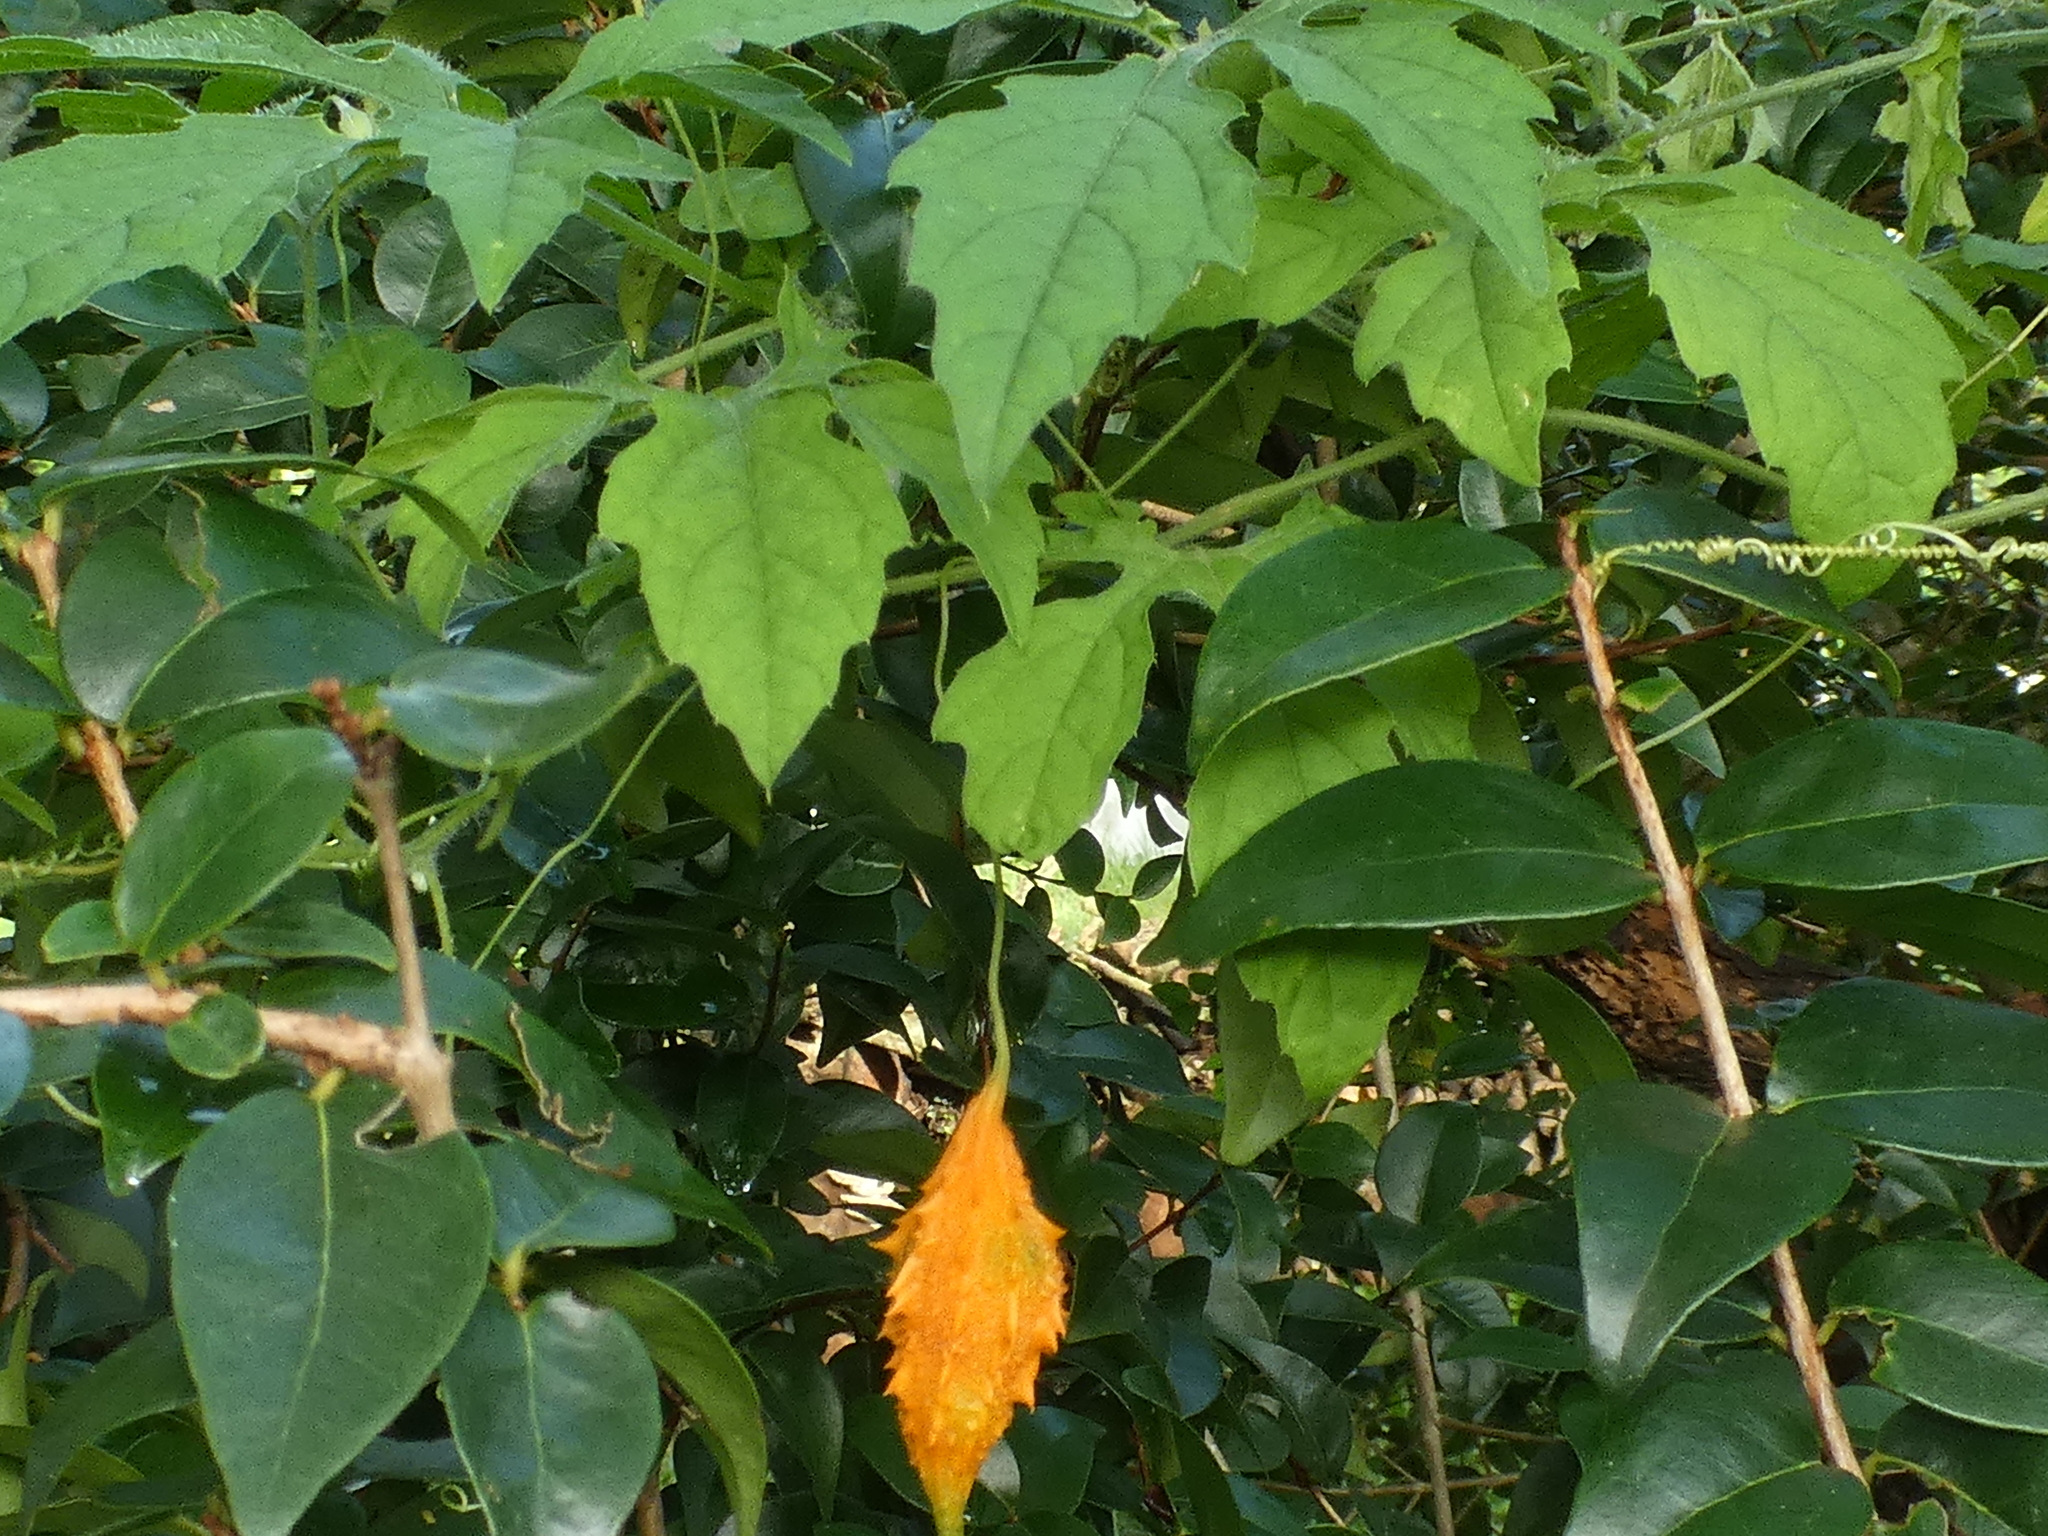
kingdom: Plantae
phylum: Tracheophyta
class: Magnoliopsida
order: Cucurbitales
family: Cucurbitaceae
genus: Momordica
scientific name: Momordica charantia
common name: Balsampear
